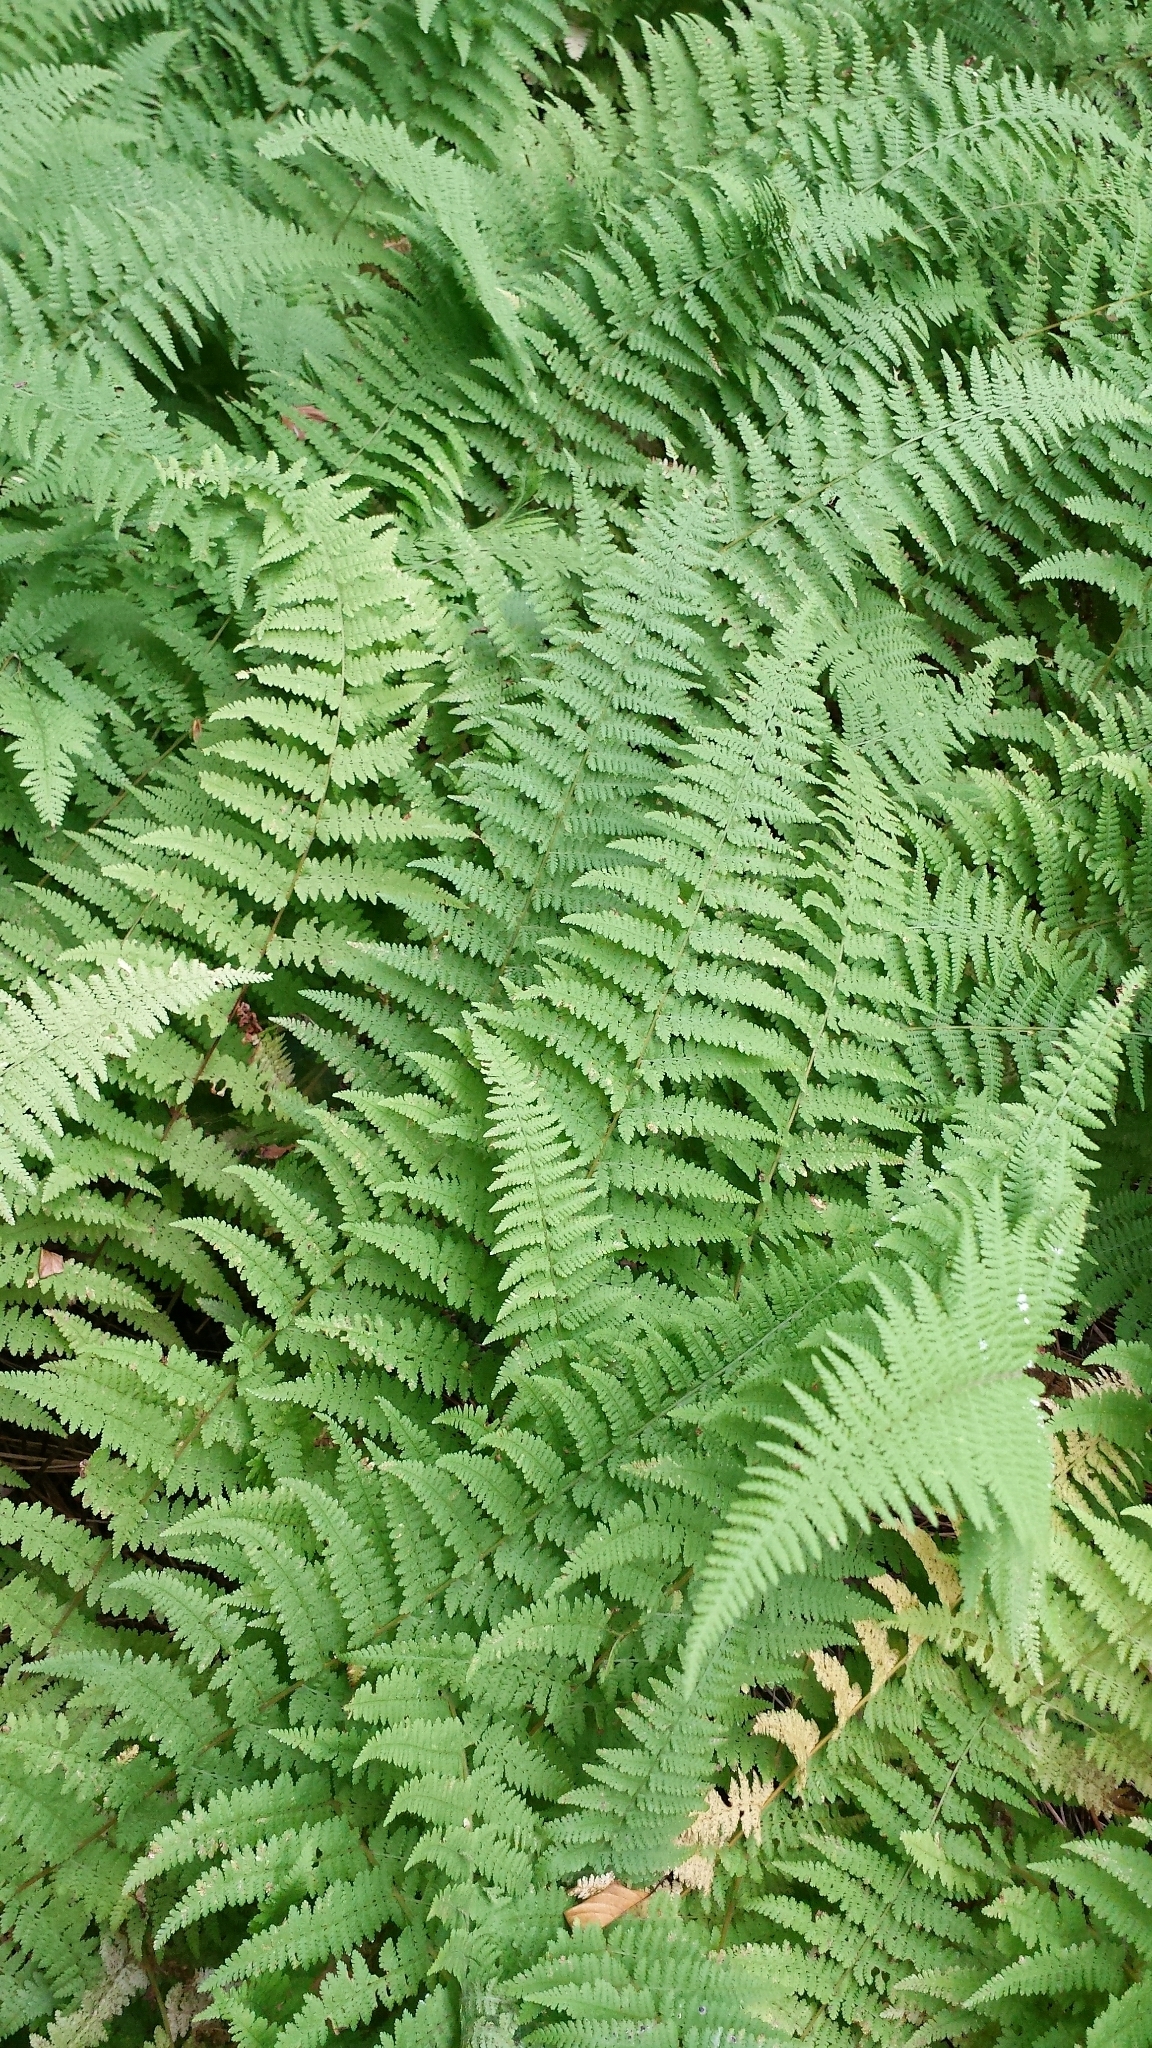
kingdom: Plantae
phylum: Tracheophyta
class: Polypodiopsida
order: Polypodiales
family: Dennstaedtiaceae
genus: Sitobolium
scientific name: Sitobolium punctilobum
